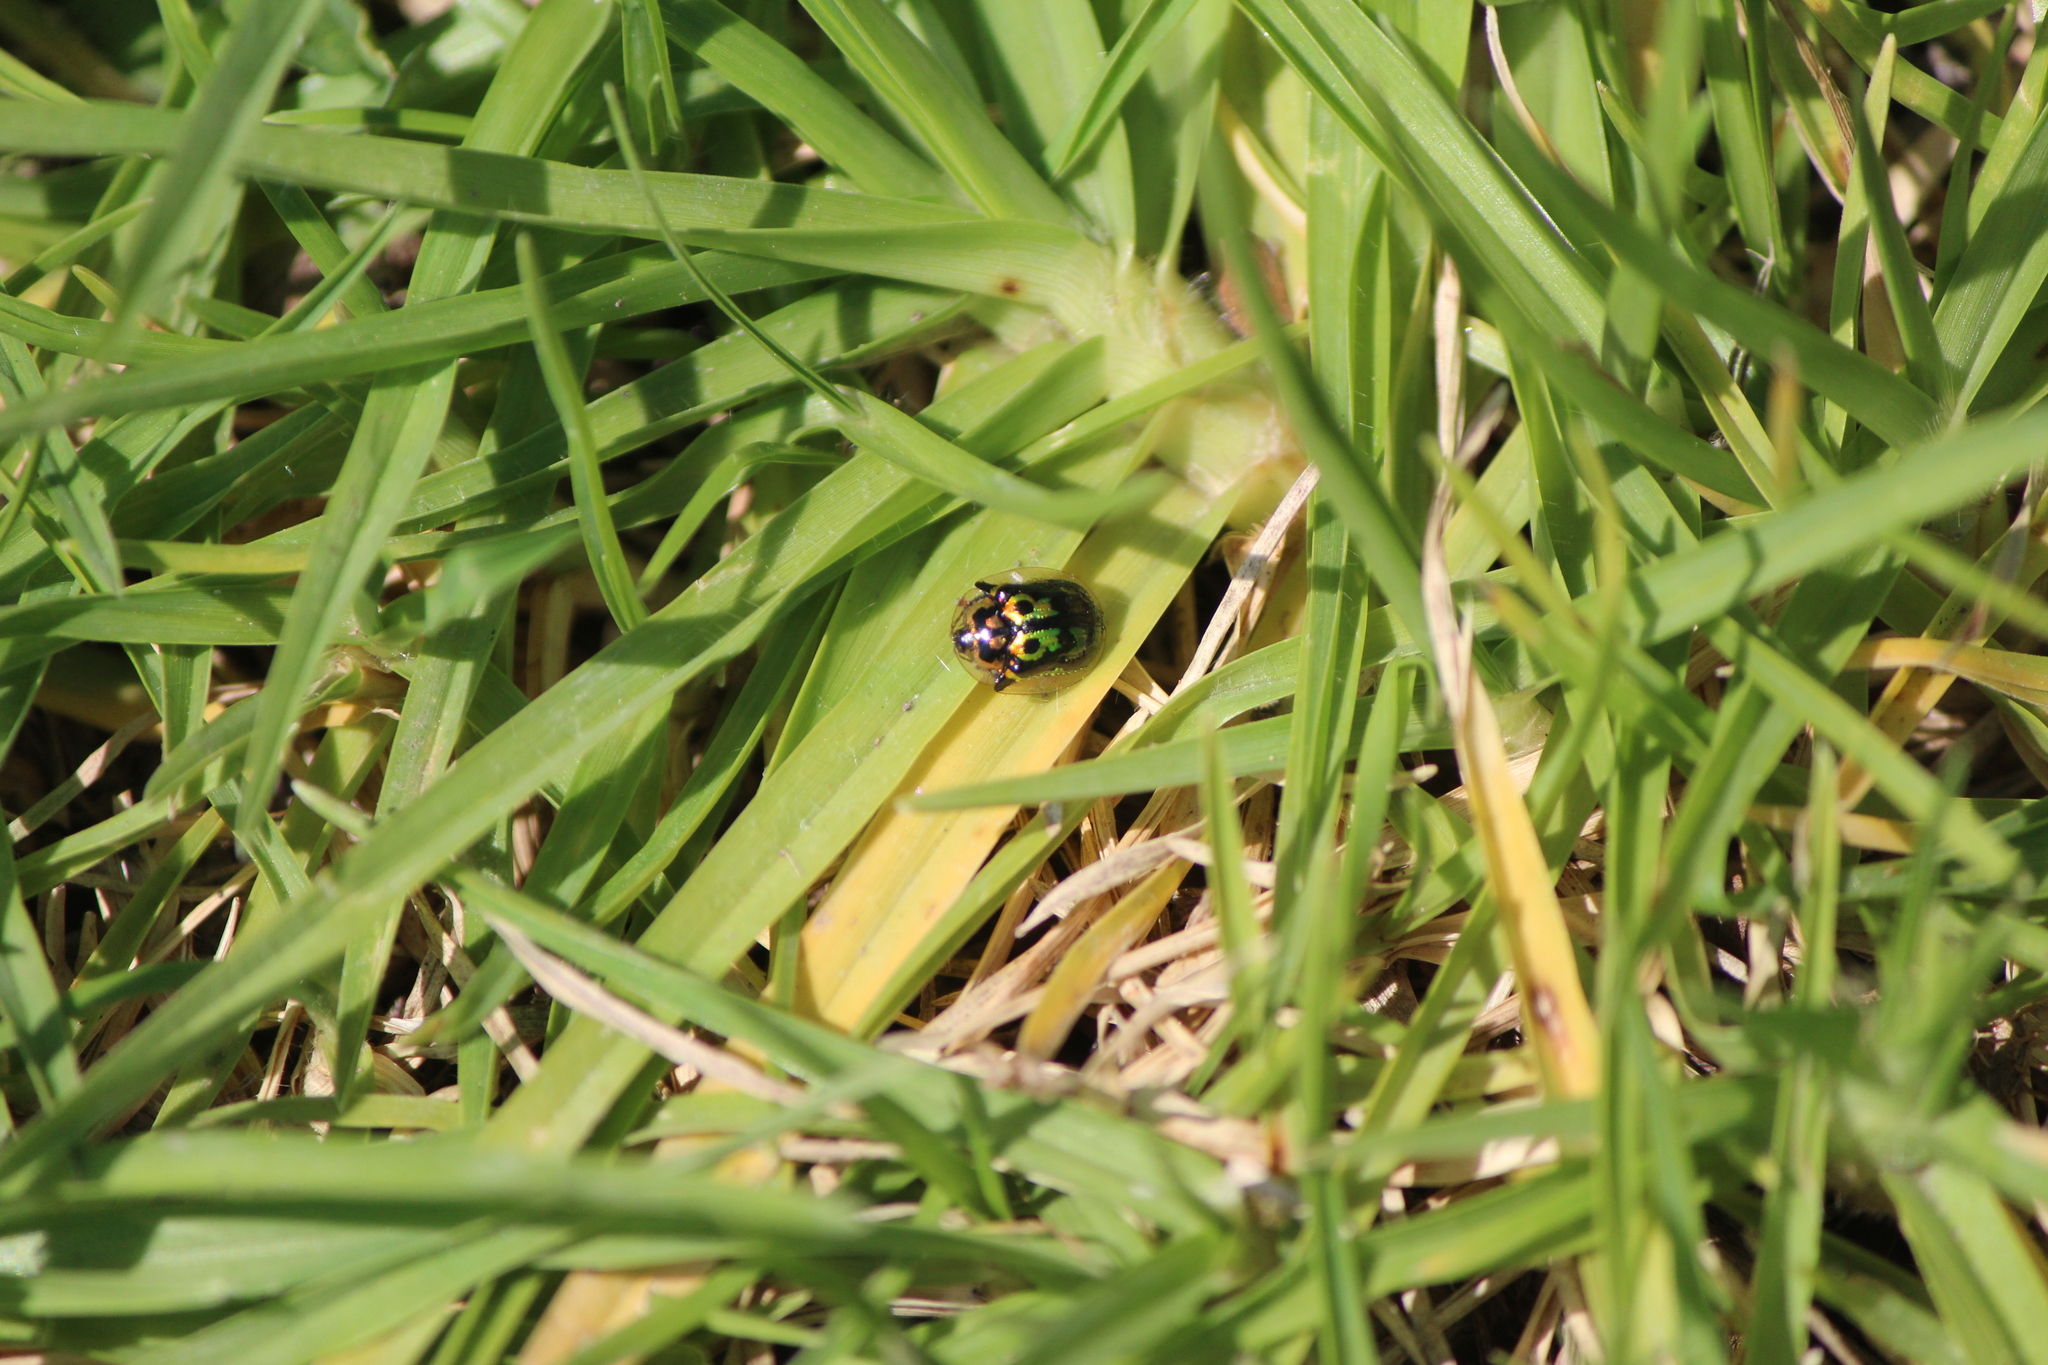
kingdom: Animalia
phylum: Arthropoda
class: Insecta
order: Coleoptera
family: Chrysomelidae
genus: Deloyala
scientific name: Deloyala lecontei
